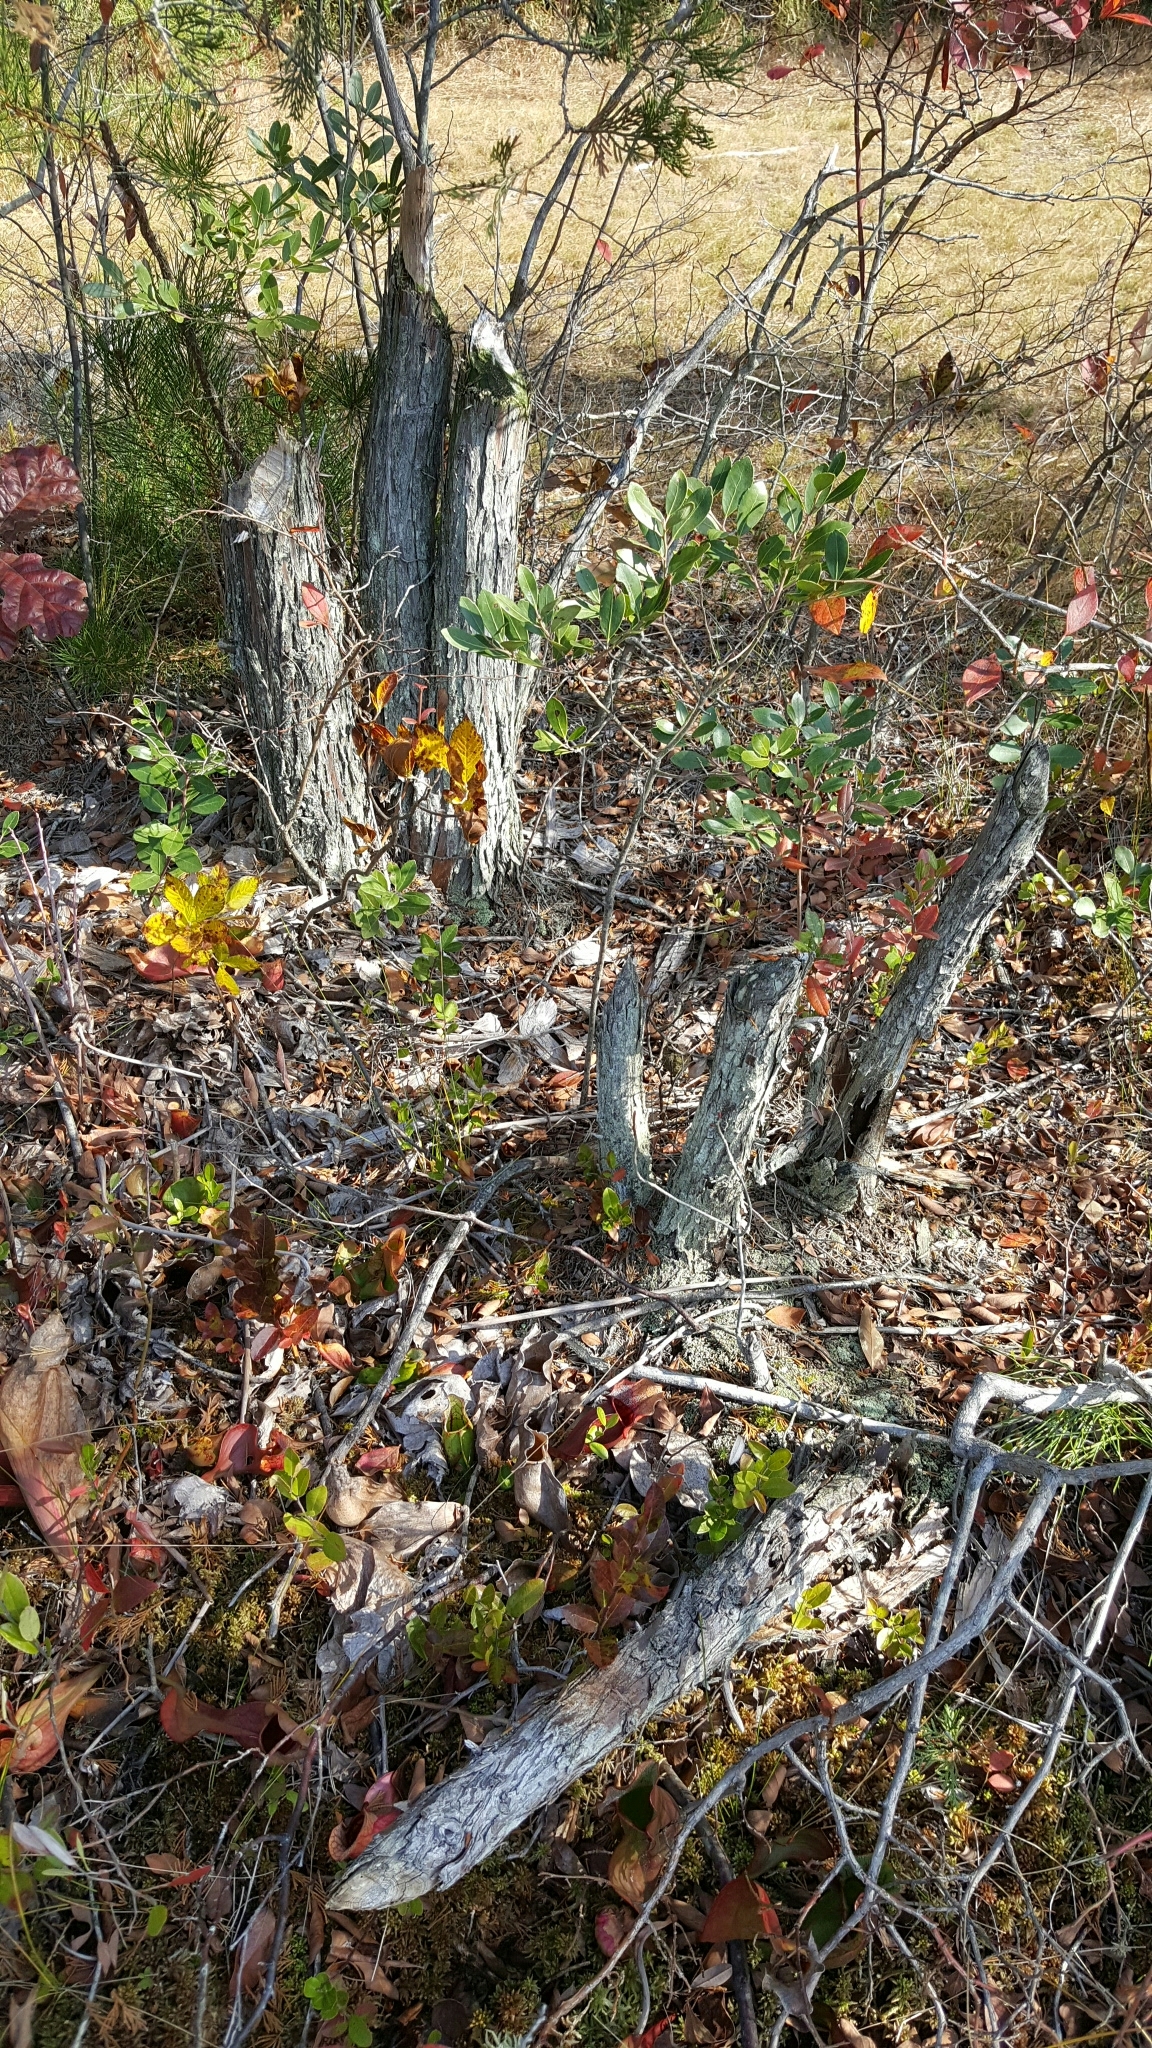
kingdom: Animalia
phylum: Chordata
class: Mammalia
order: Rodentia
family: Castoridae
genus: Castor
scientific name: Castor canadensis
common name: American beaver
